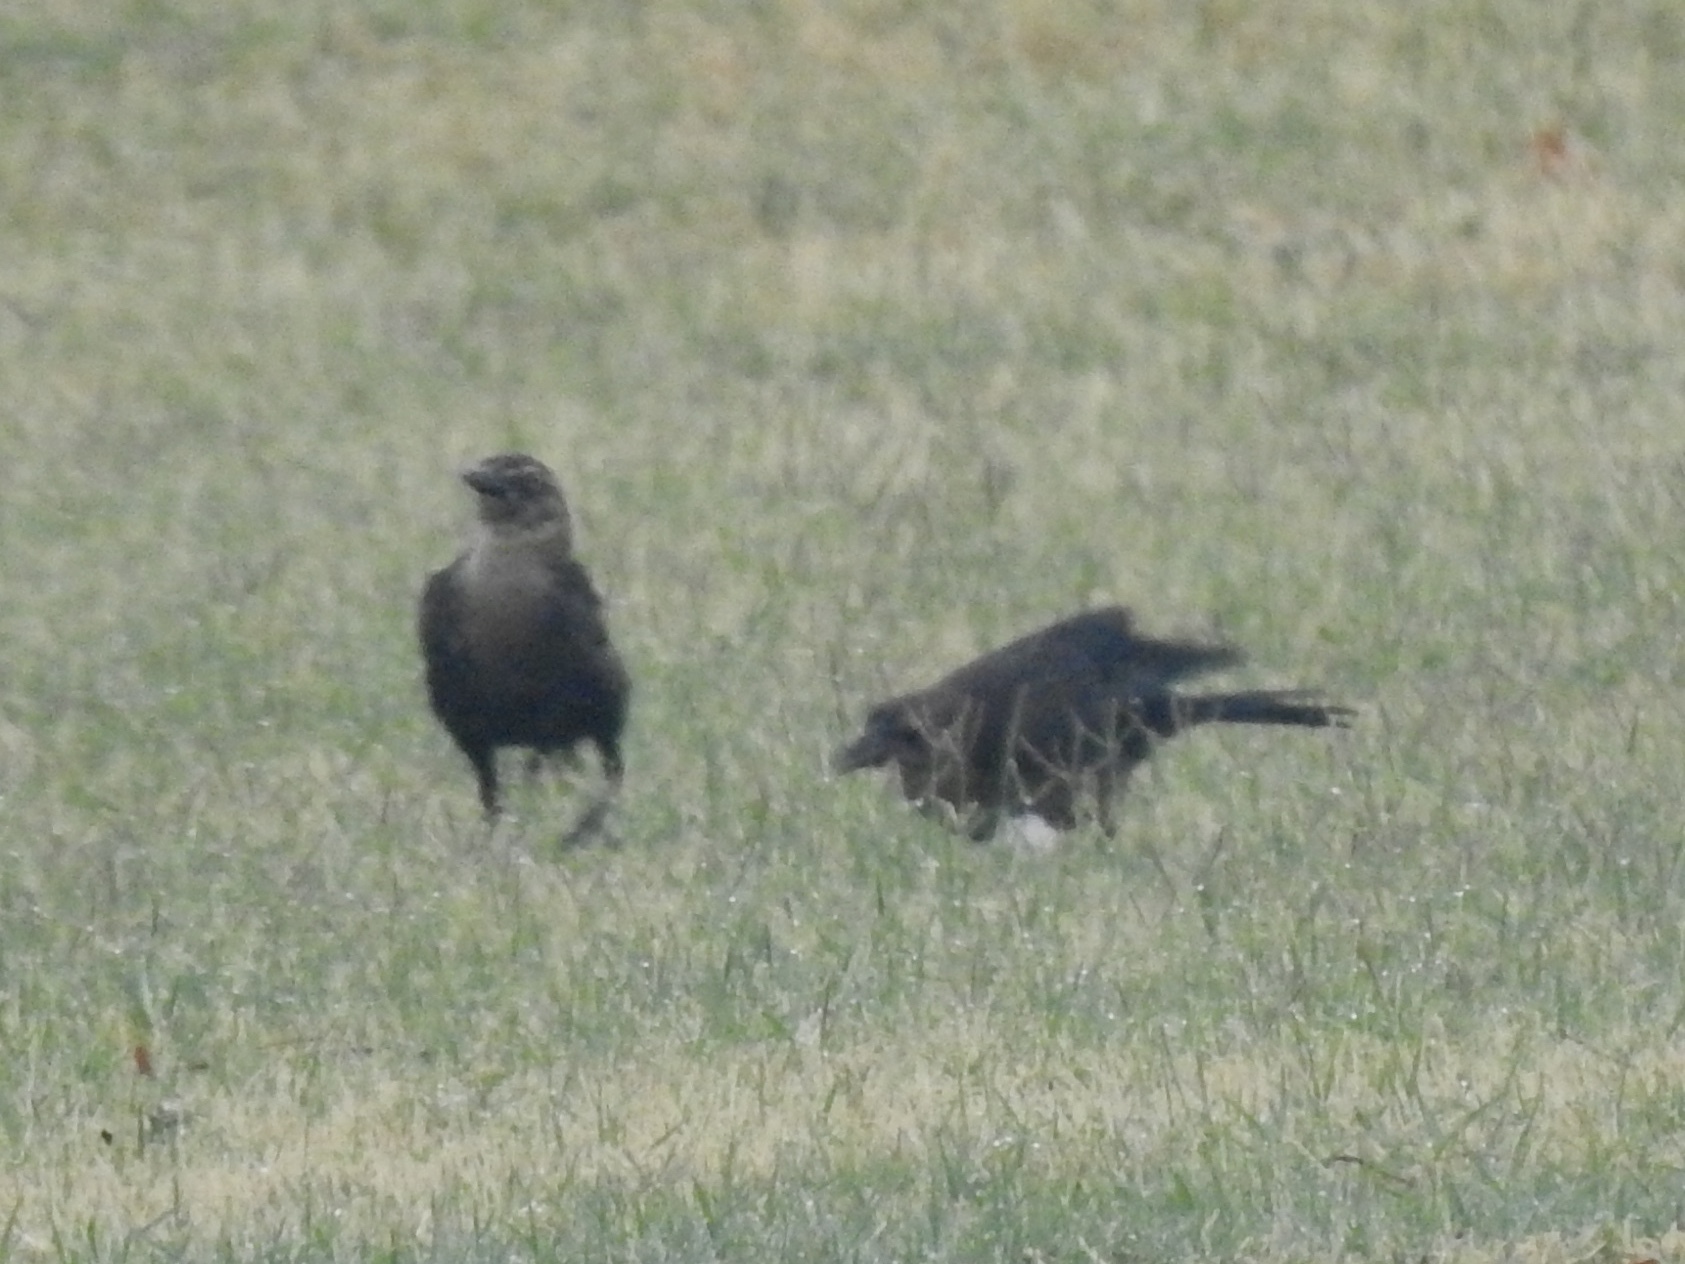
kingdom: Animalia
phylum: Chordata
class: Aves
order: Passeriformes
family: Icteridae
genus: Quiscalus
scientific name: Quiscalus mexicanus
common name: Great-tailed grackle
